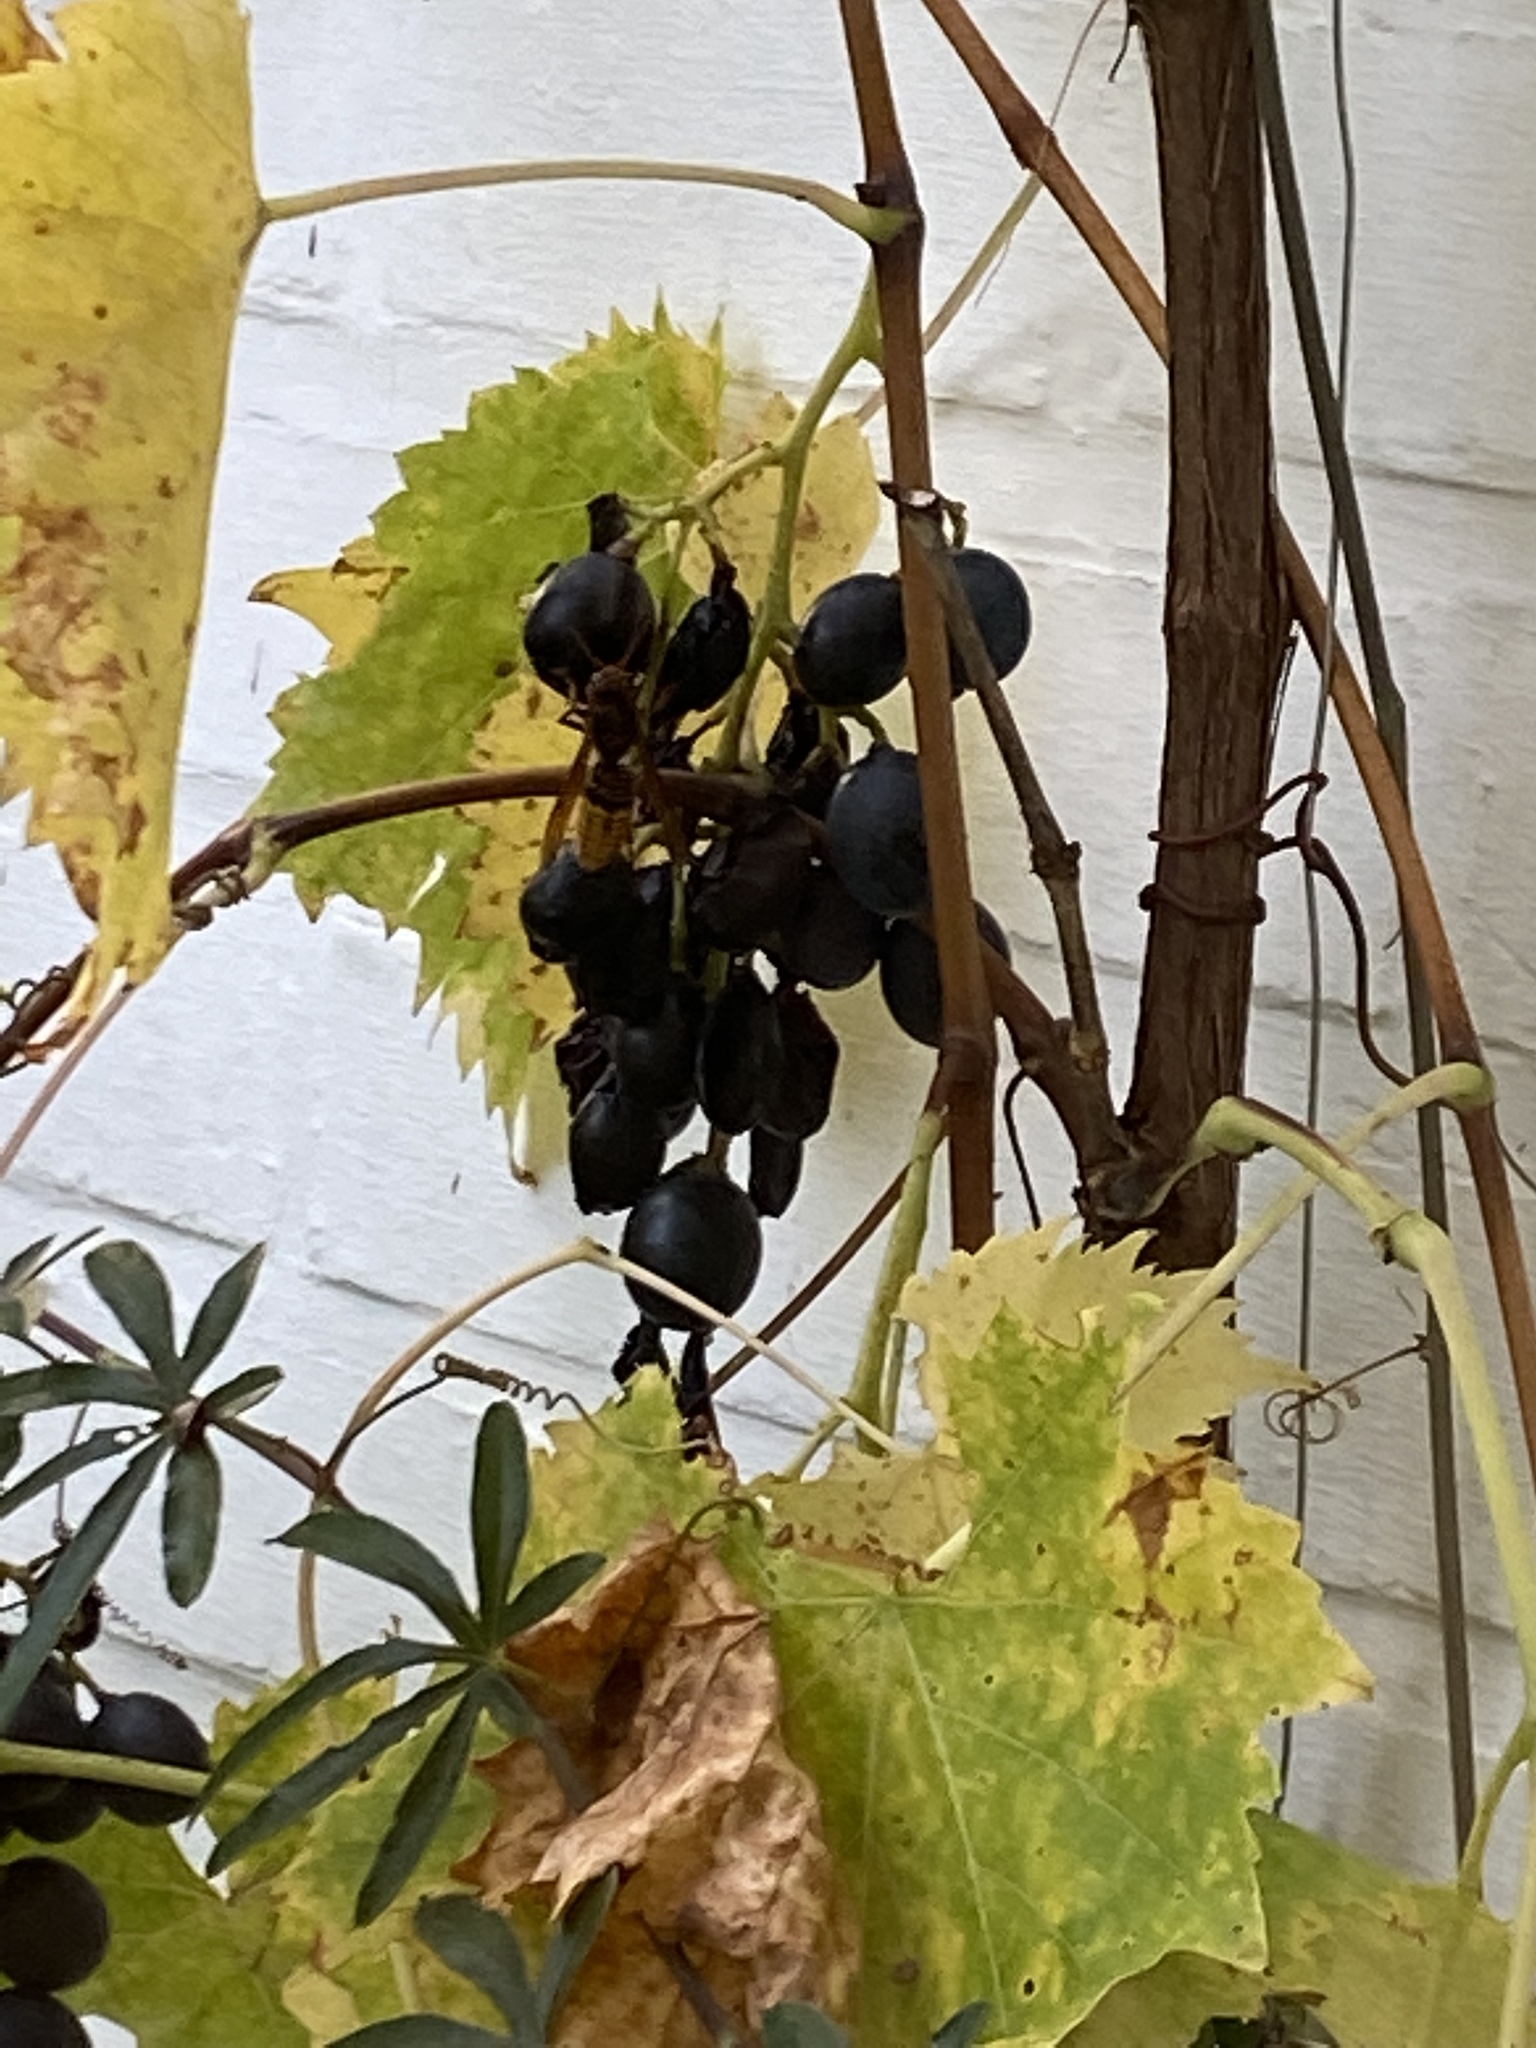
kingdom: Animalia
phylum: Arthropoda
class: Insecta
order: Hymenoptera
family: Vespidae
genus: Vespa
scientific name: Vespa velutina
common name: Asian hornet
